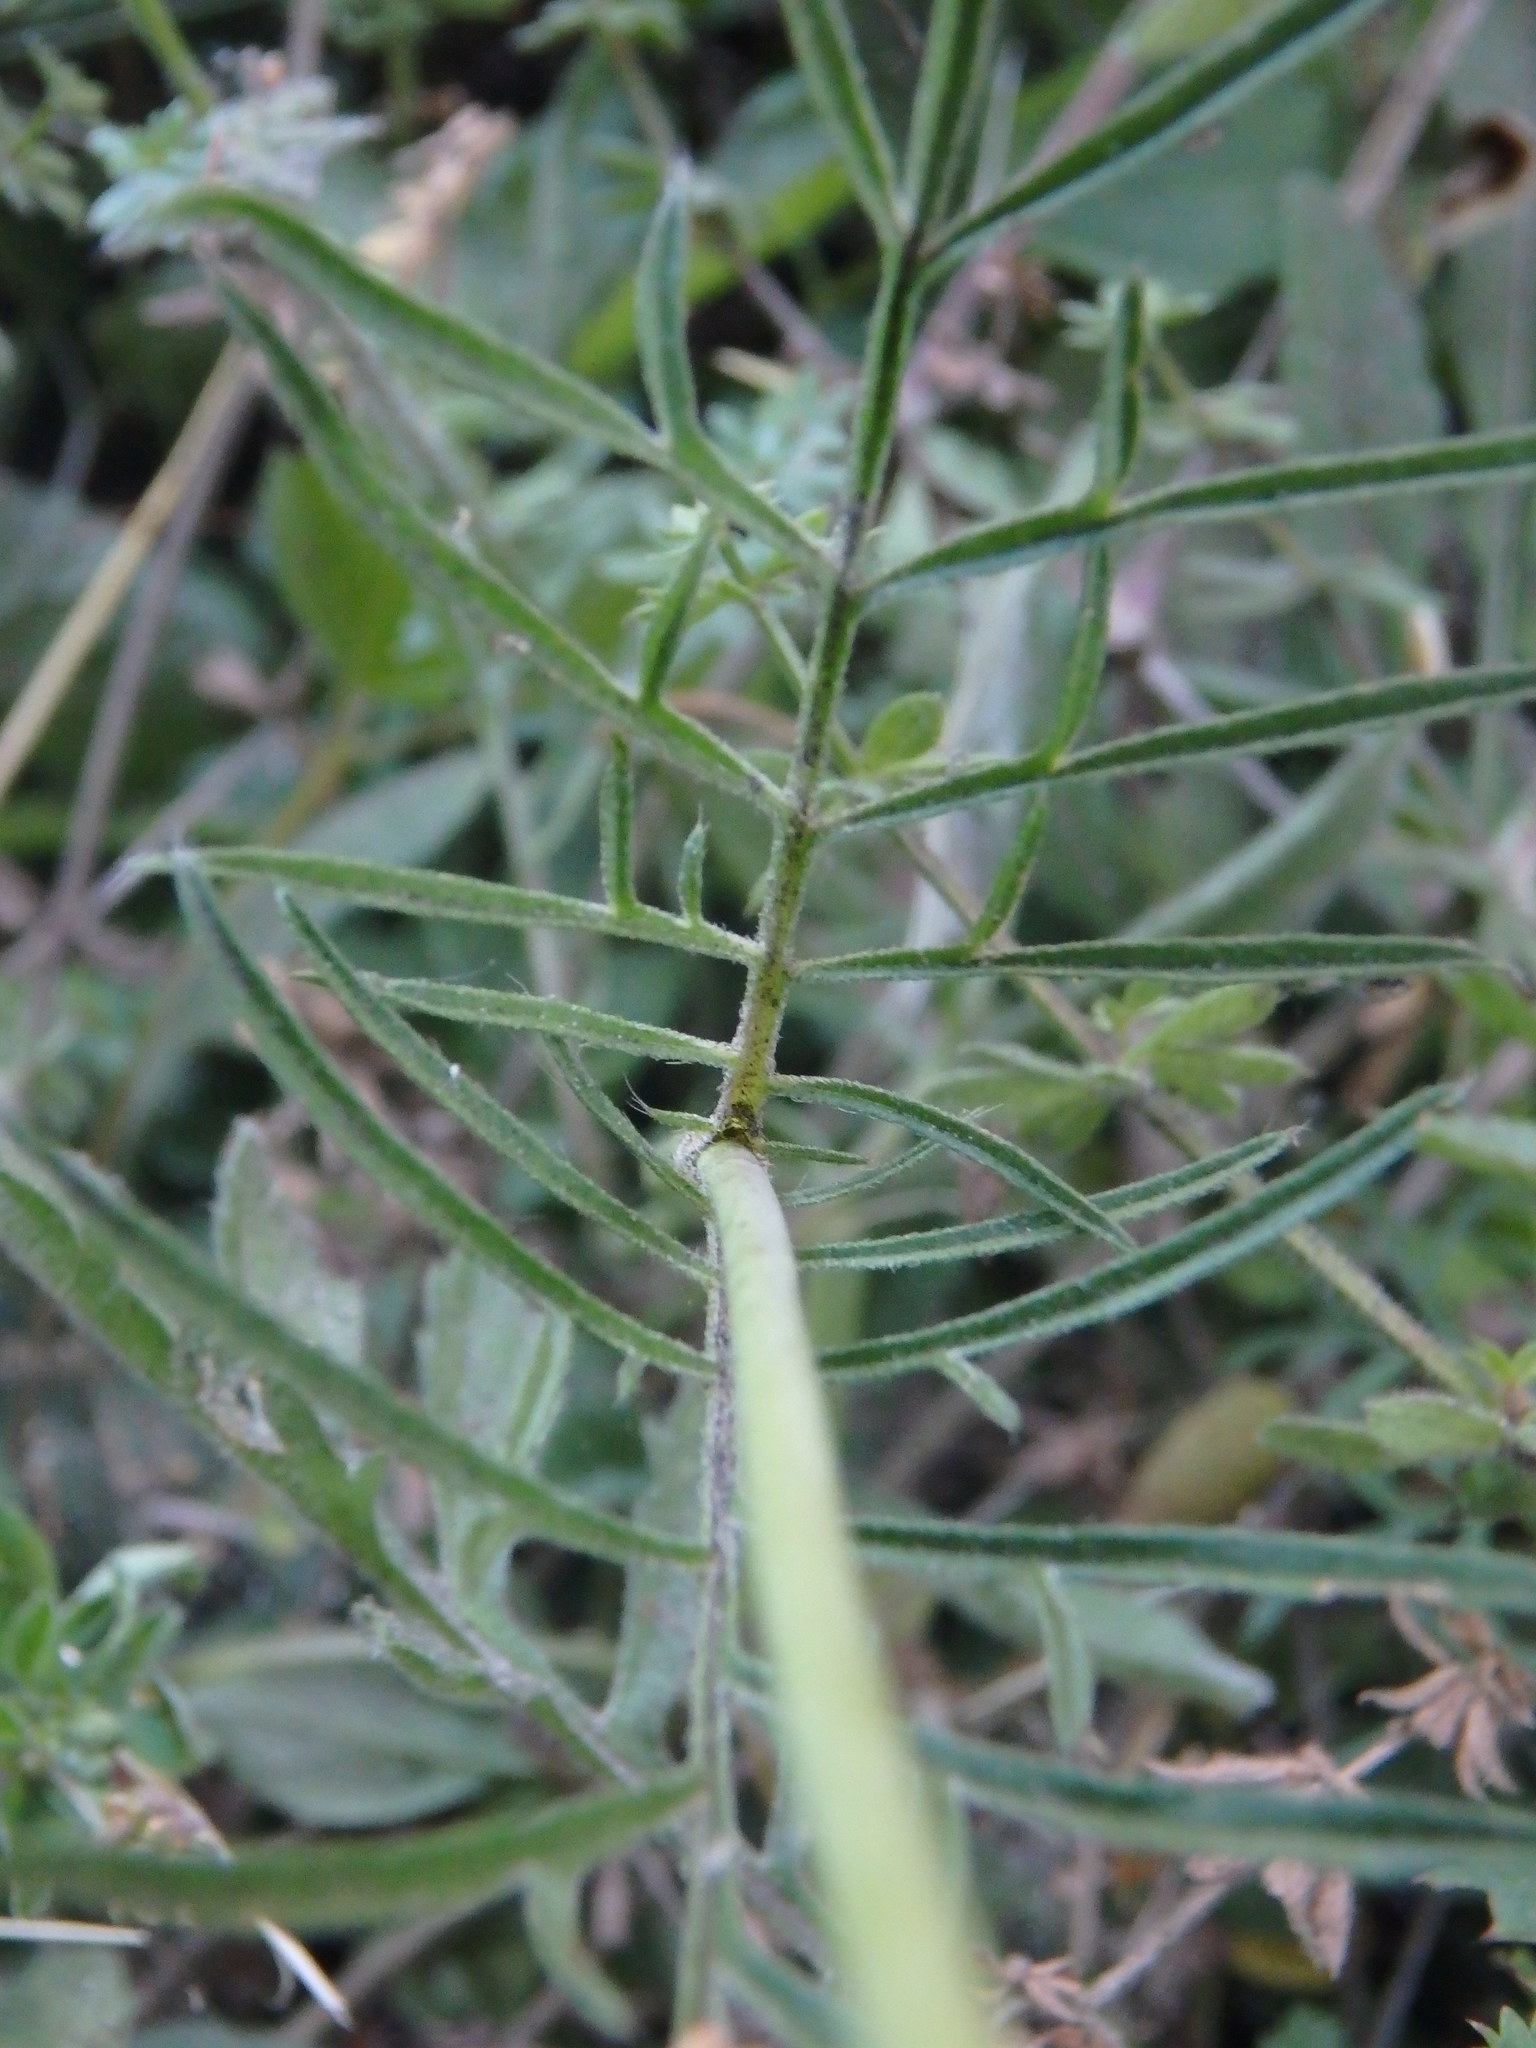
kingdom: Plantae
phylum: Tracheophyta
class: Magnoliopsida
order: Dipsacales
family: Caprifoliaceae
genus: Scabiosa
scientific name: Scabiosa columbaria
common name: Small scabious
